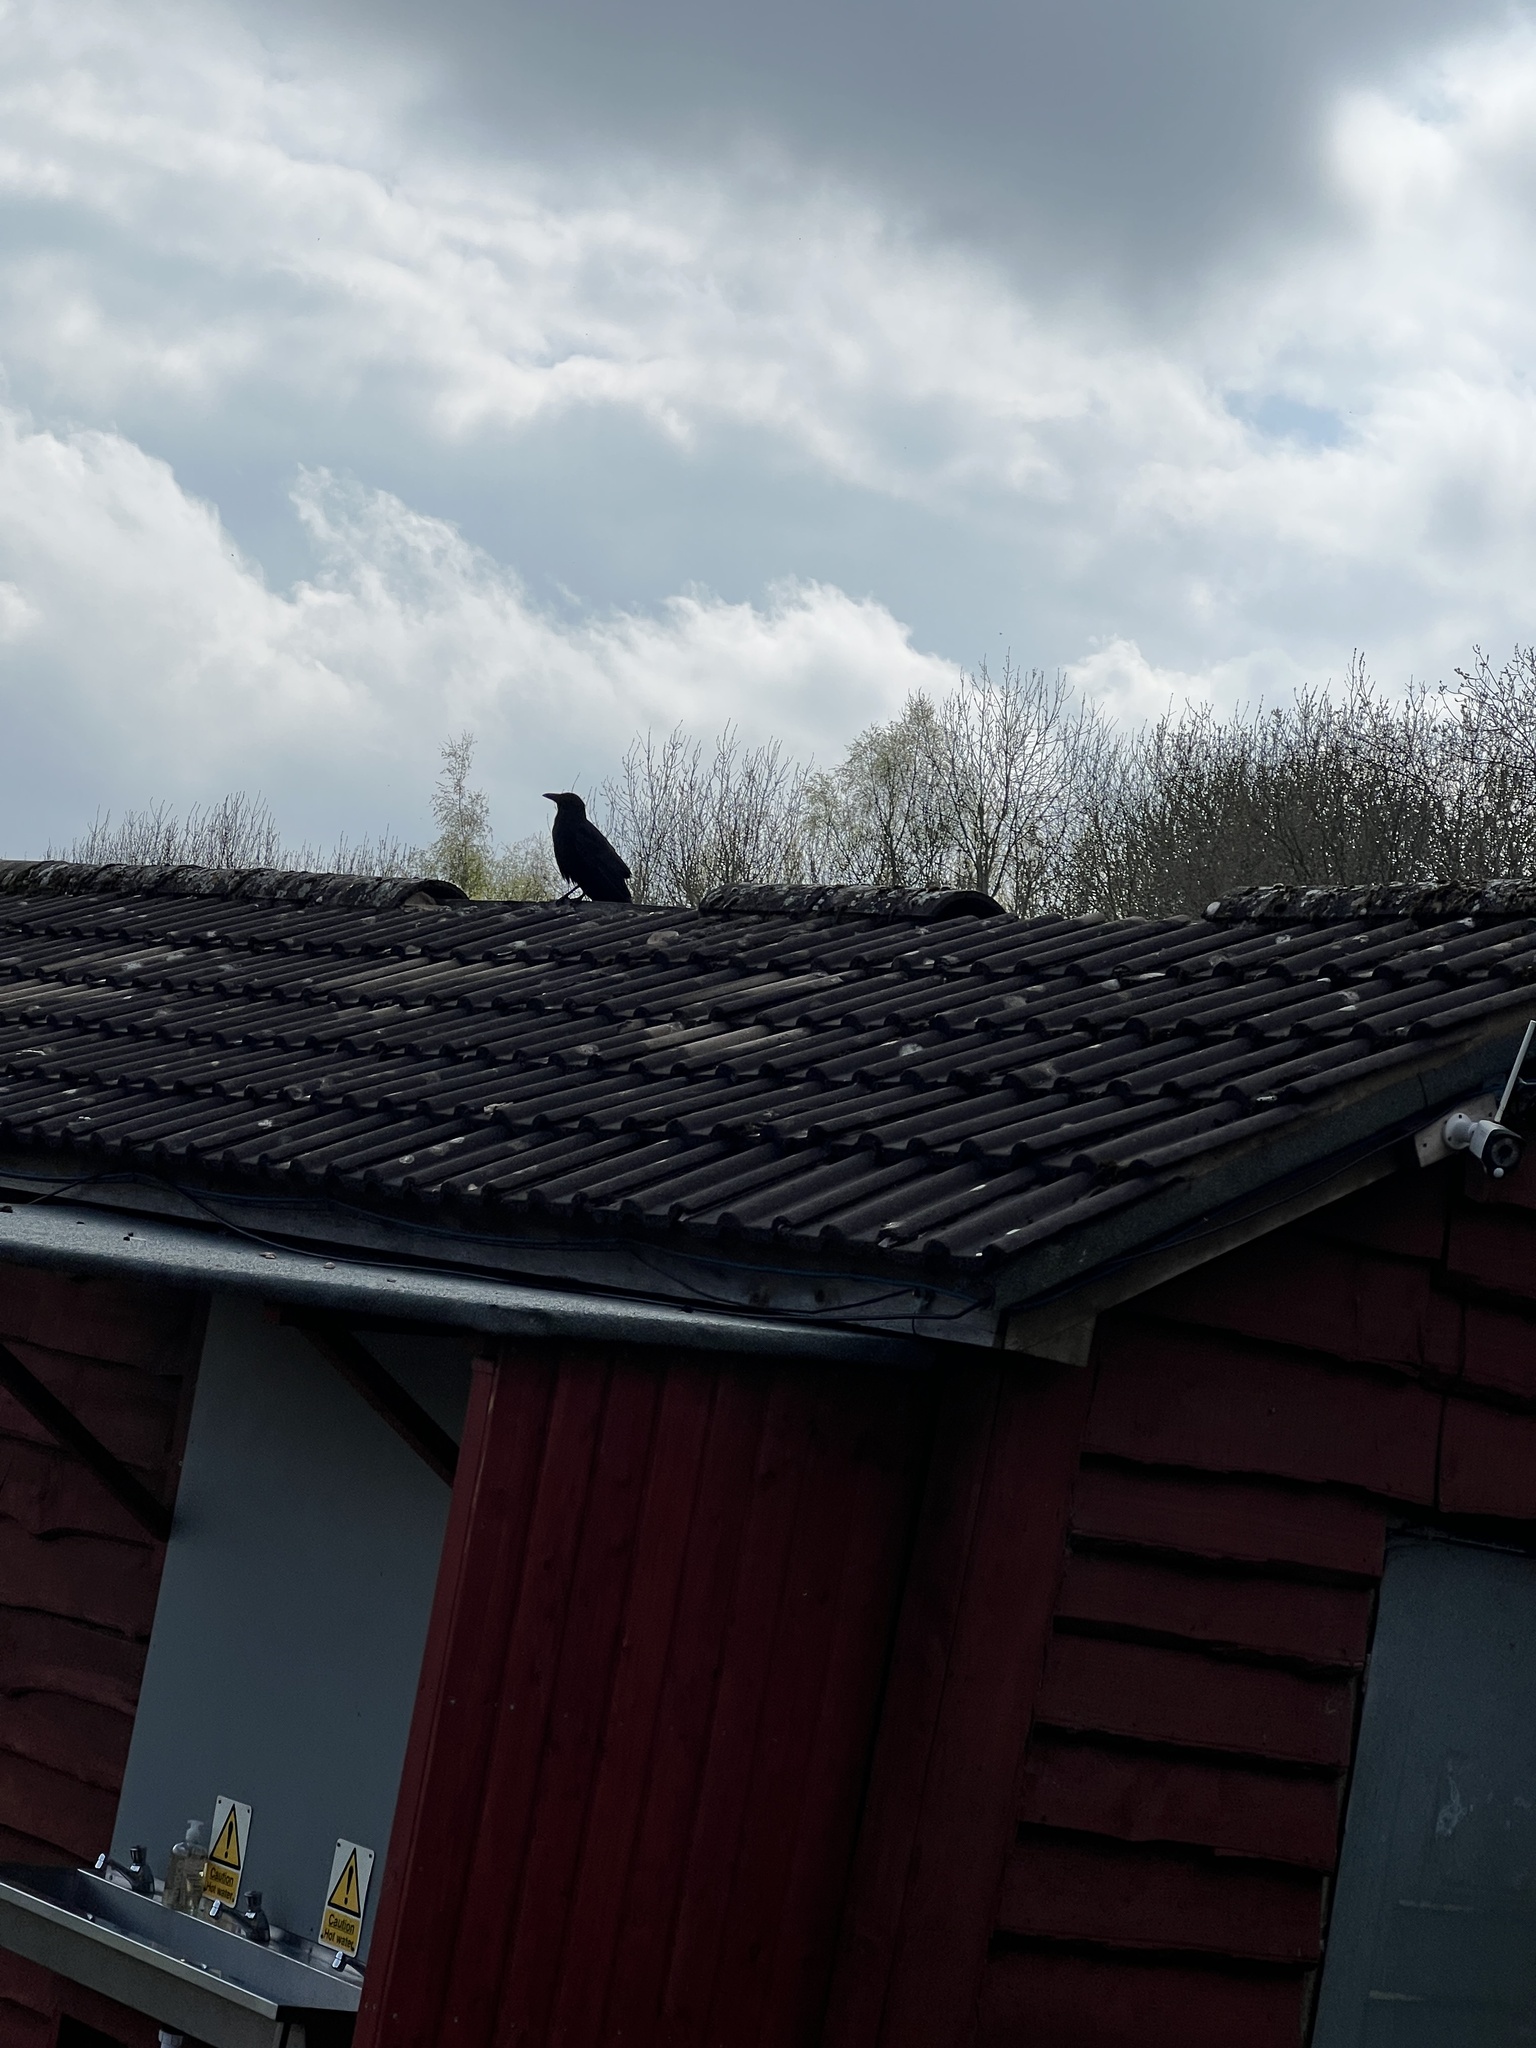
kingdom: Animalia
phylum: Chordata
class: Aves
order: Passeriformes
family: Corvidae
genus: Corvus
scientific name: Corvus corone
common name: Carrion crow
